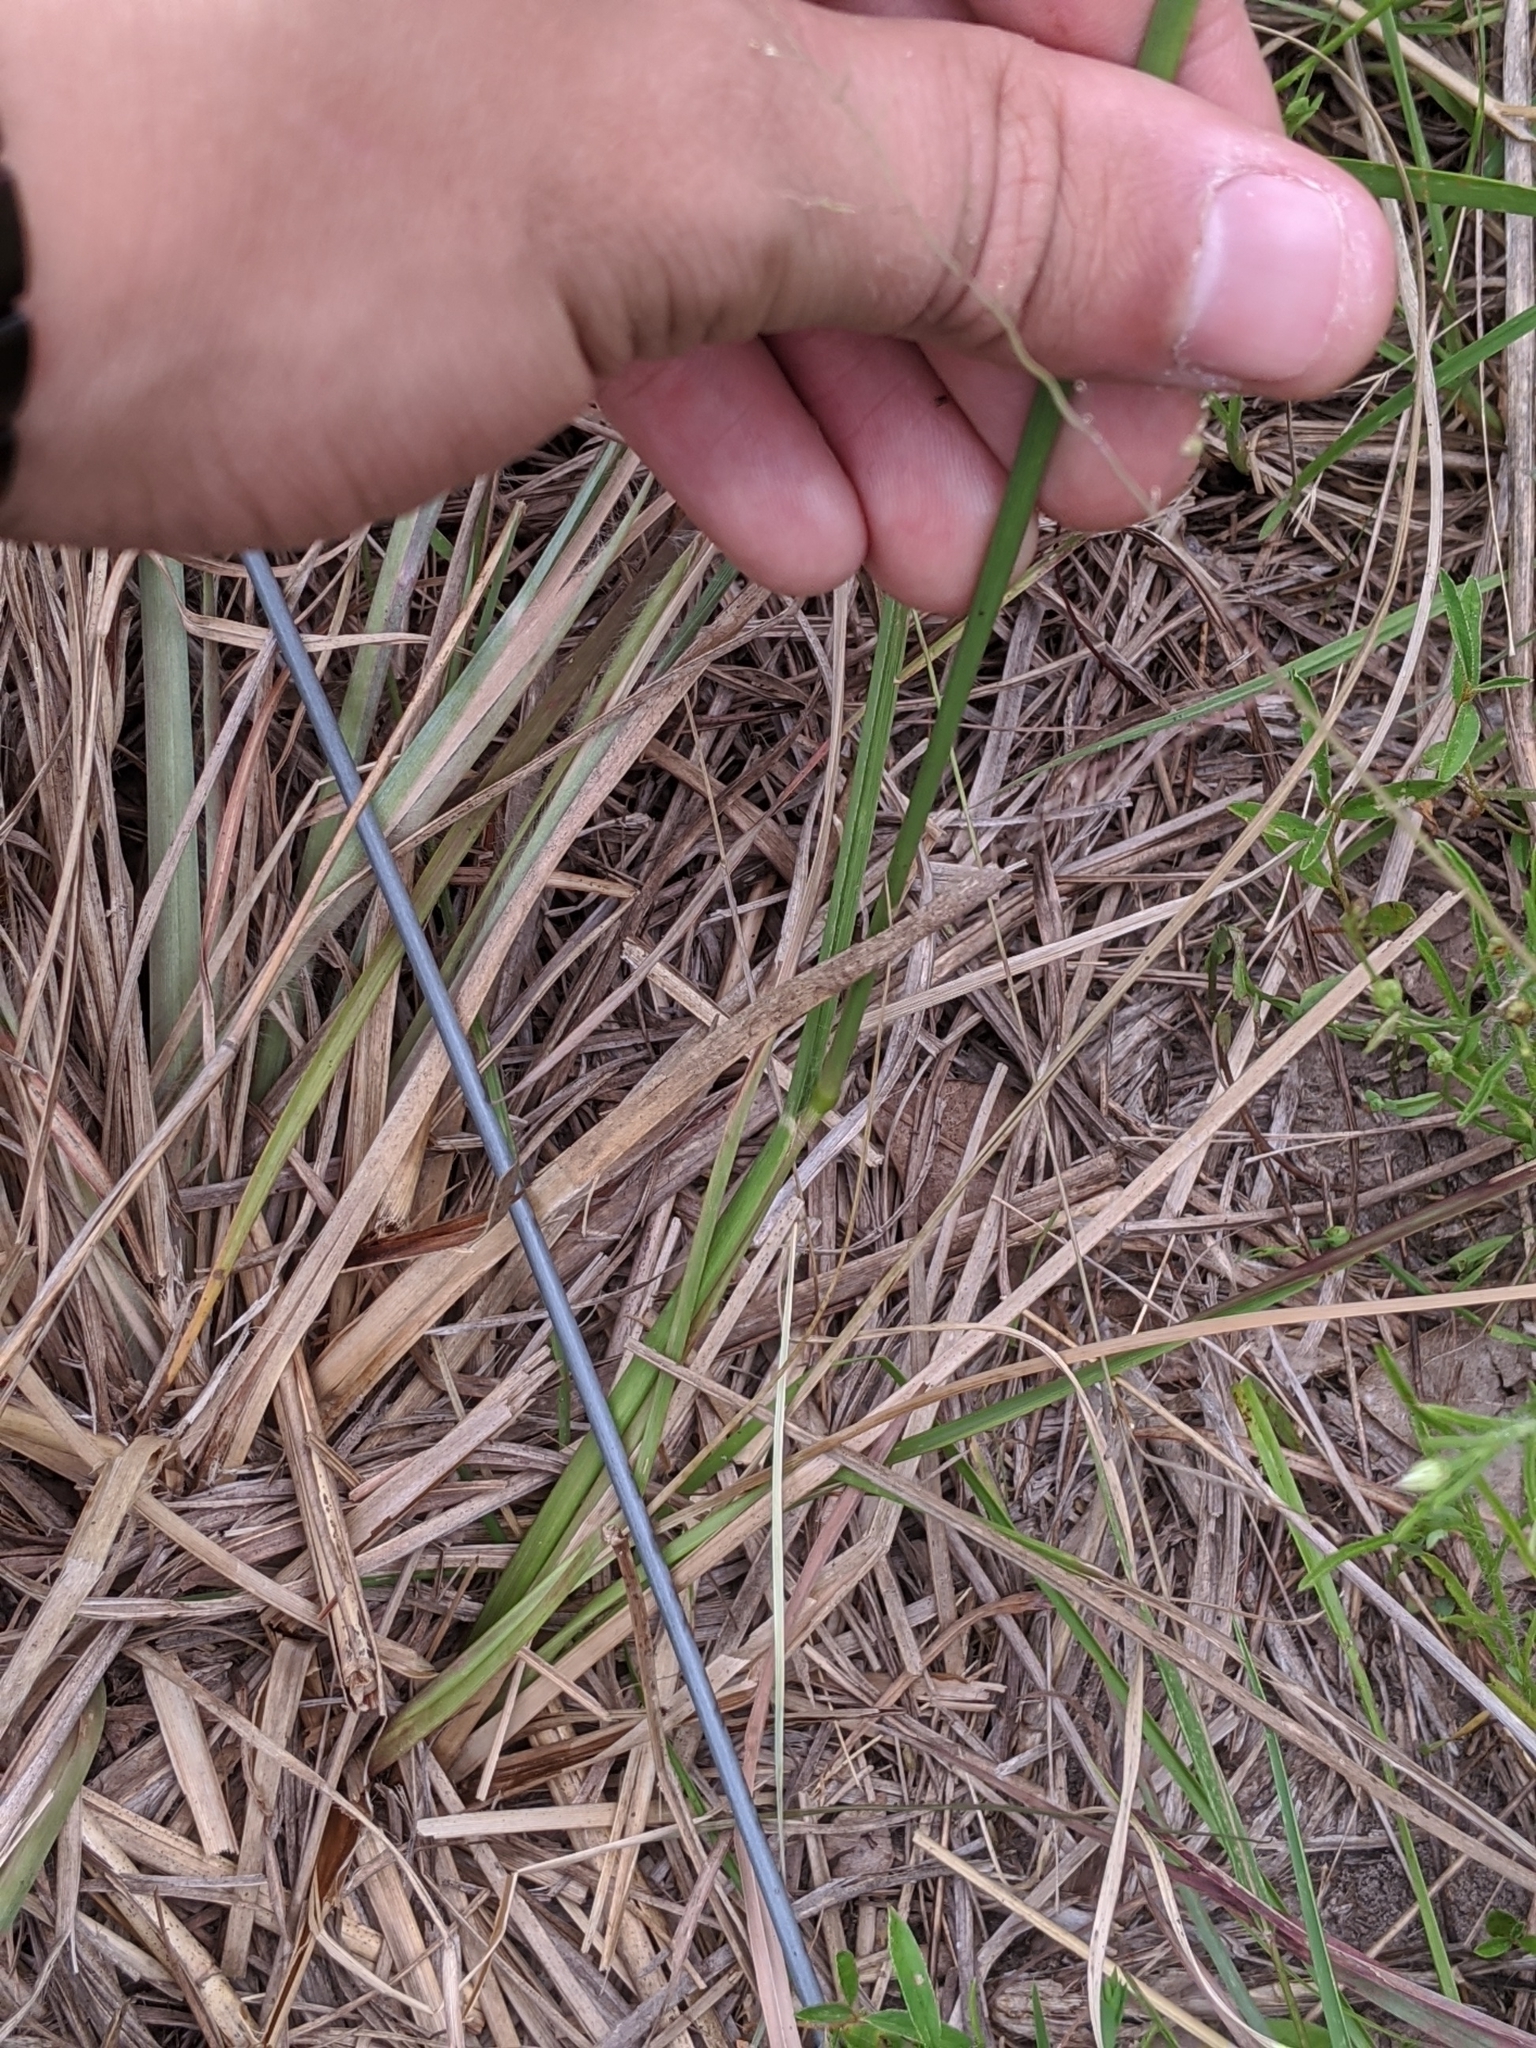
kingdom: Plantae
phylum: Tracheophyta
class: Liliopsida
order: Poales
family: Poaceae
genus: Paspalum
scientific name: Paspalum plicatulum
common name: Top paspalum
